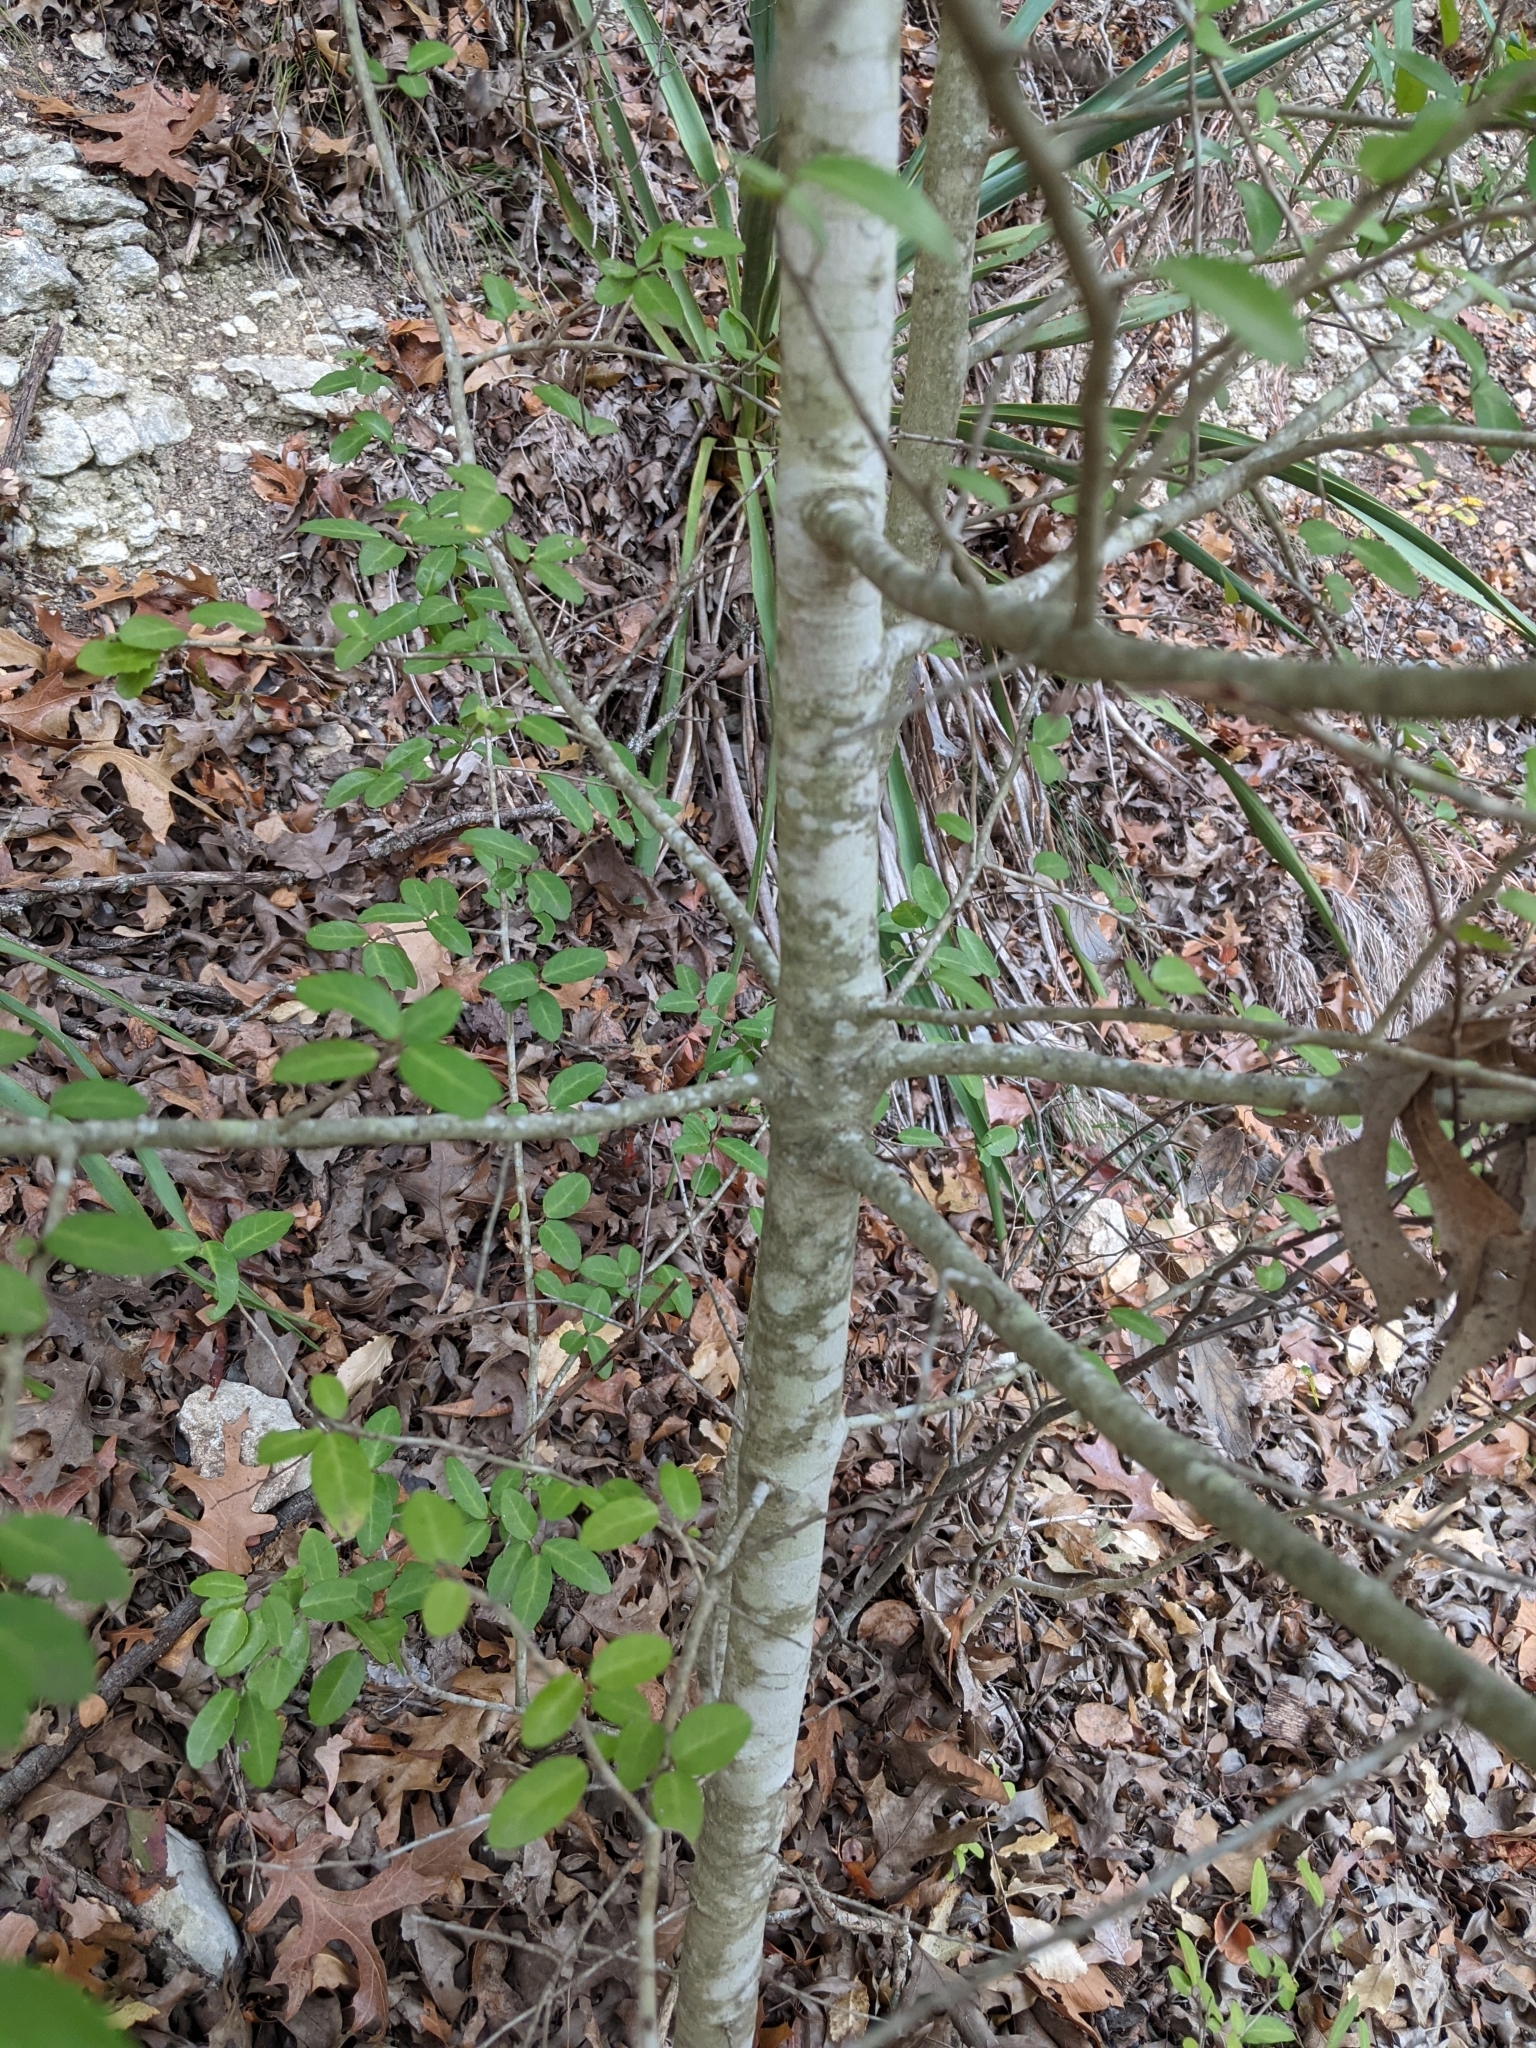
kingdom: Plantae
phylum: Tracheophyta
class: Magnoliopsida
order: Aquifoliales
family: Aquifoliaceae
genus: Ilex
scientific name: Ilex vomitoria
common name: Yaupon holly
